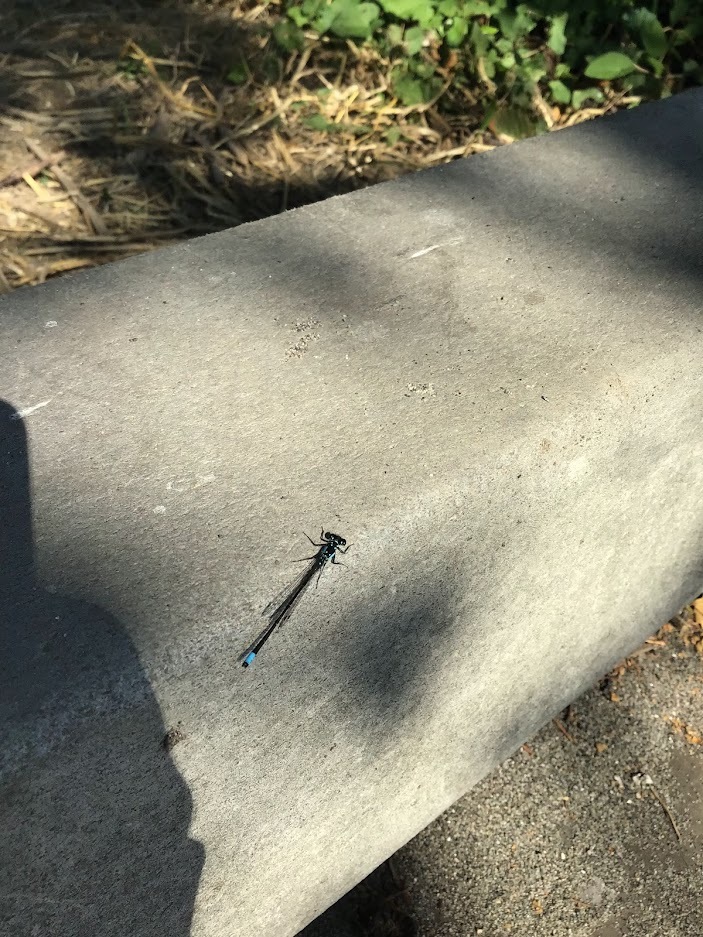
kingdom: Animalia
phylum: Arthropoda
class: Insecta
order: Odonata
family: Coenagrionidae
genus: Ischnura
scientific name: Ischnura cervula
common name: Pacific forktail
